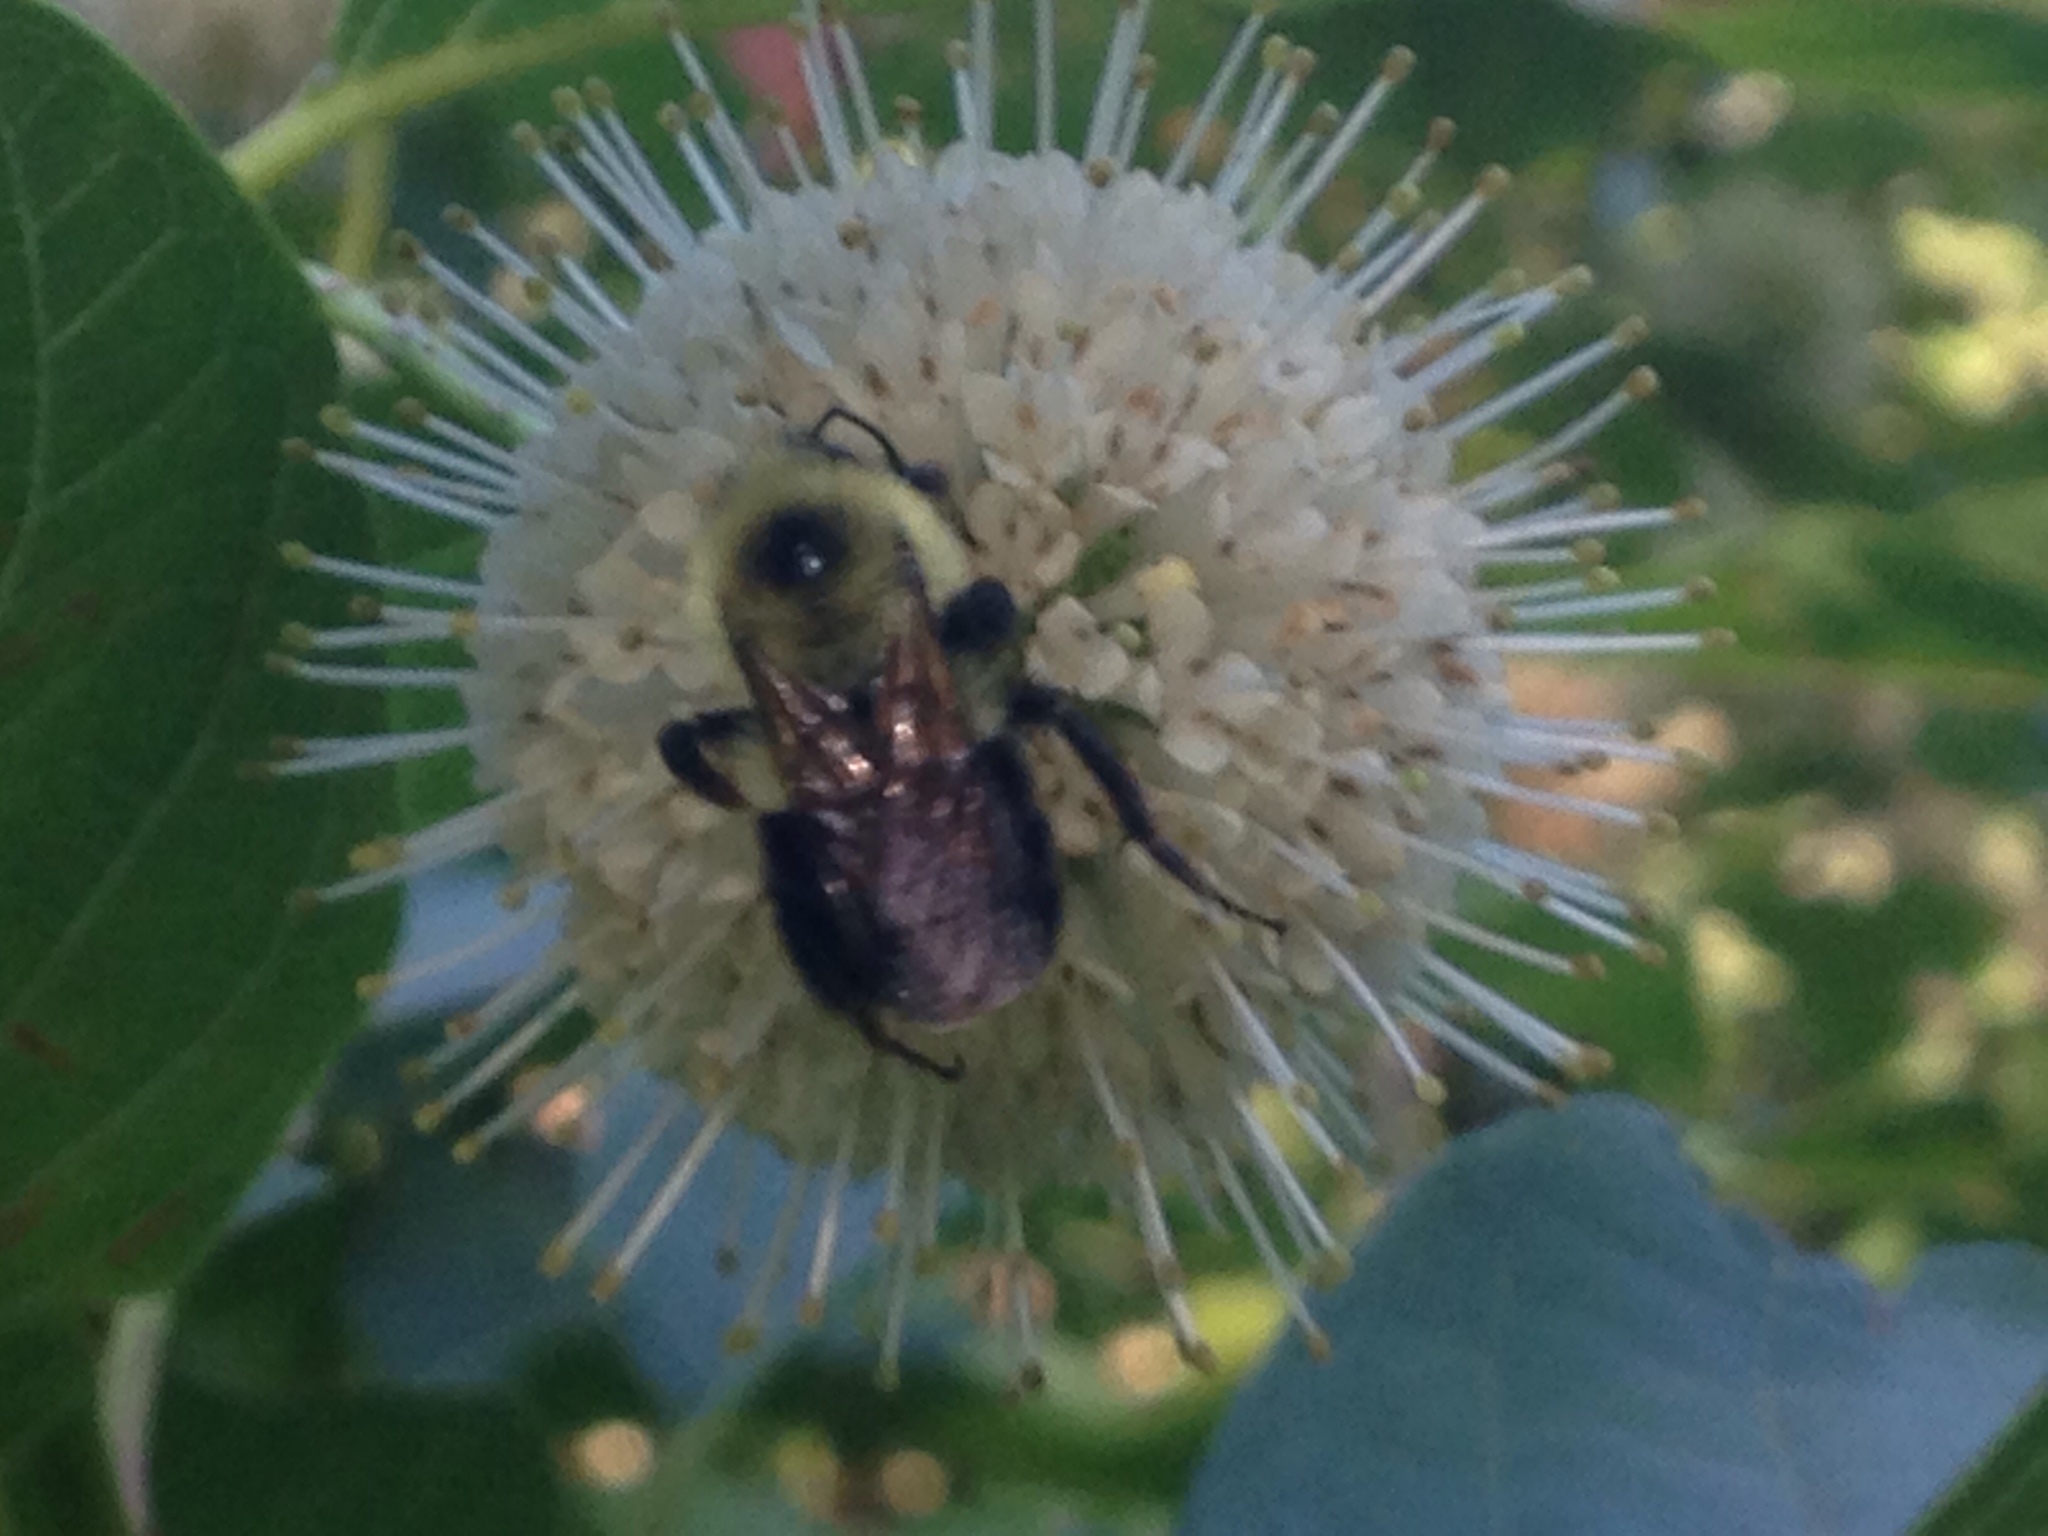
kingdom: Animalia
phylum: Arthropoda
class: Insecta
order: Hymenoptera
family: Apidae
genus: Bombus
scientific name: Bombus bimaculatus
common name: Two-spotted bumble bee
